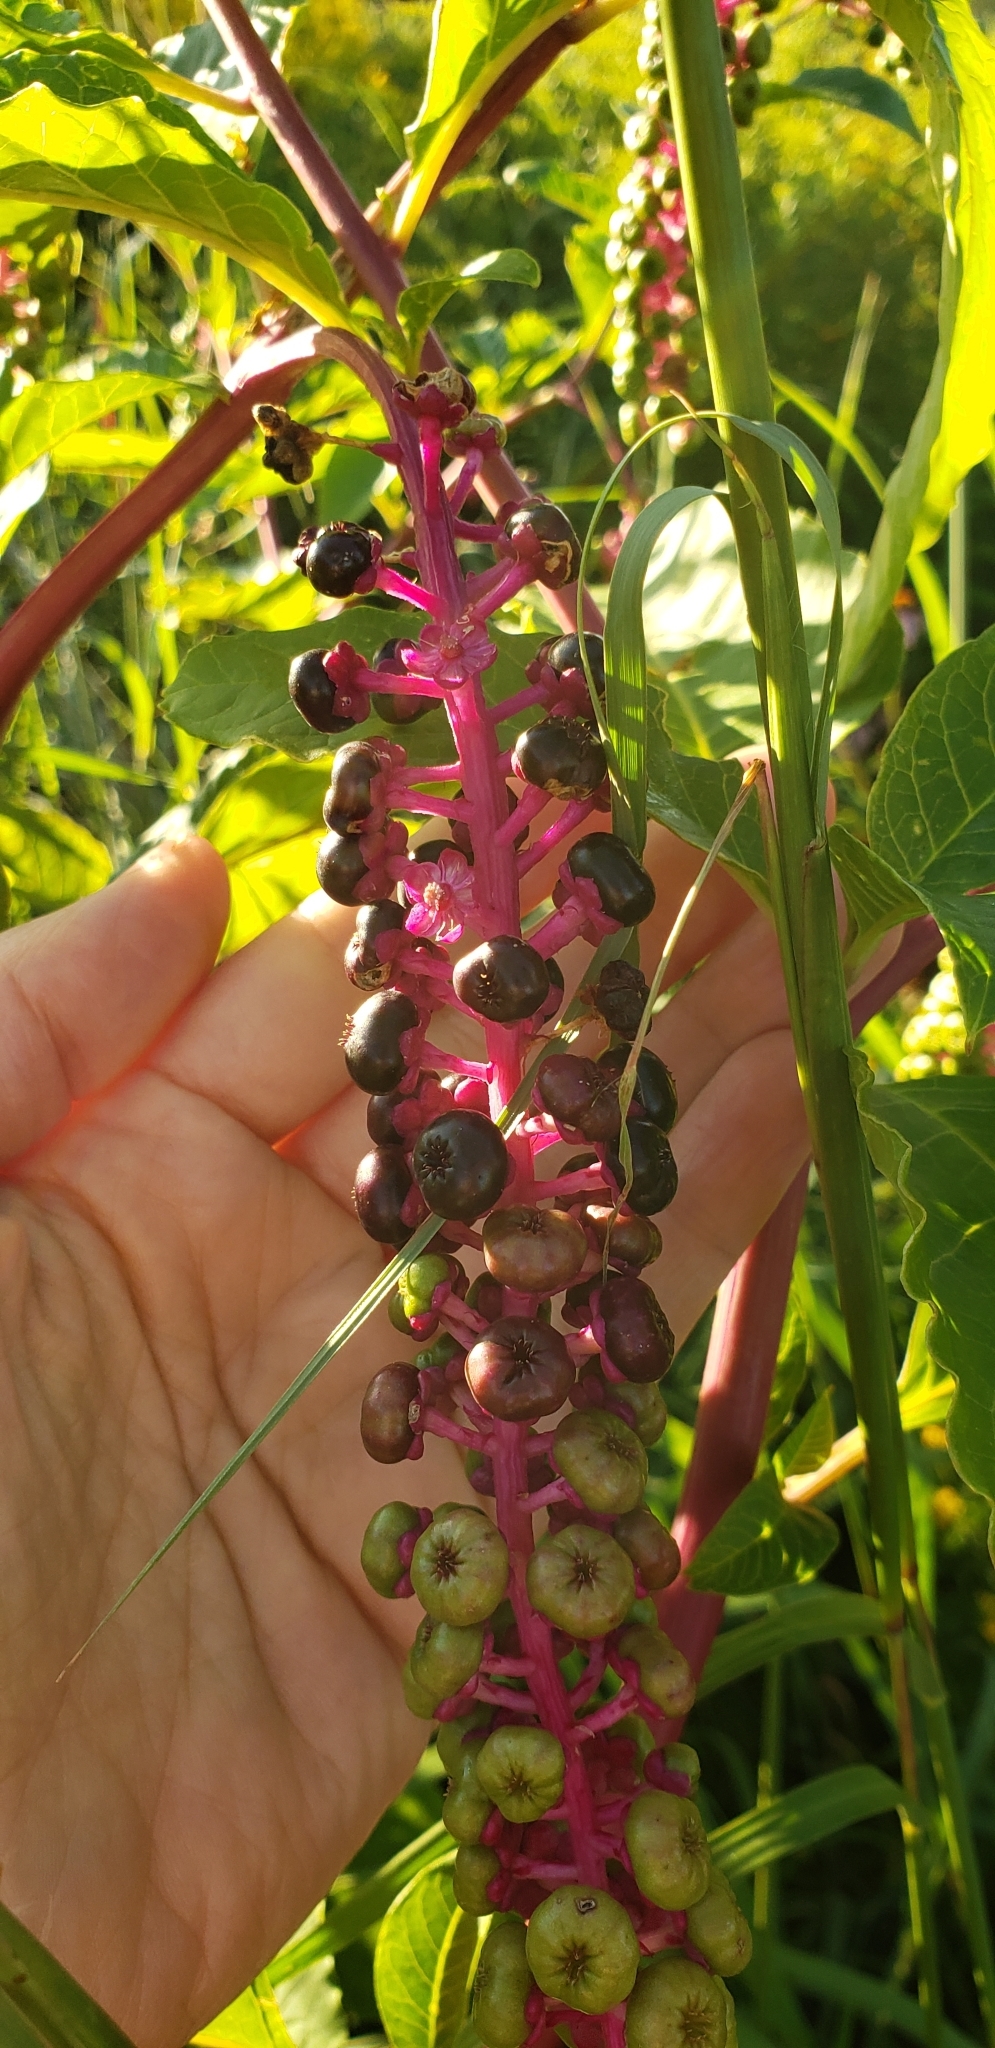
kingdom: Plantae
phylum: Tracheophyta
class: Magnoliopsida
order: Caryophyllales
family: Phytolaccaceae
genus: Phytolacca
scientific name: Phytolacca americana
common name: American pokeweed
